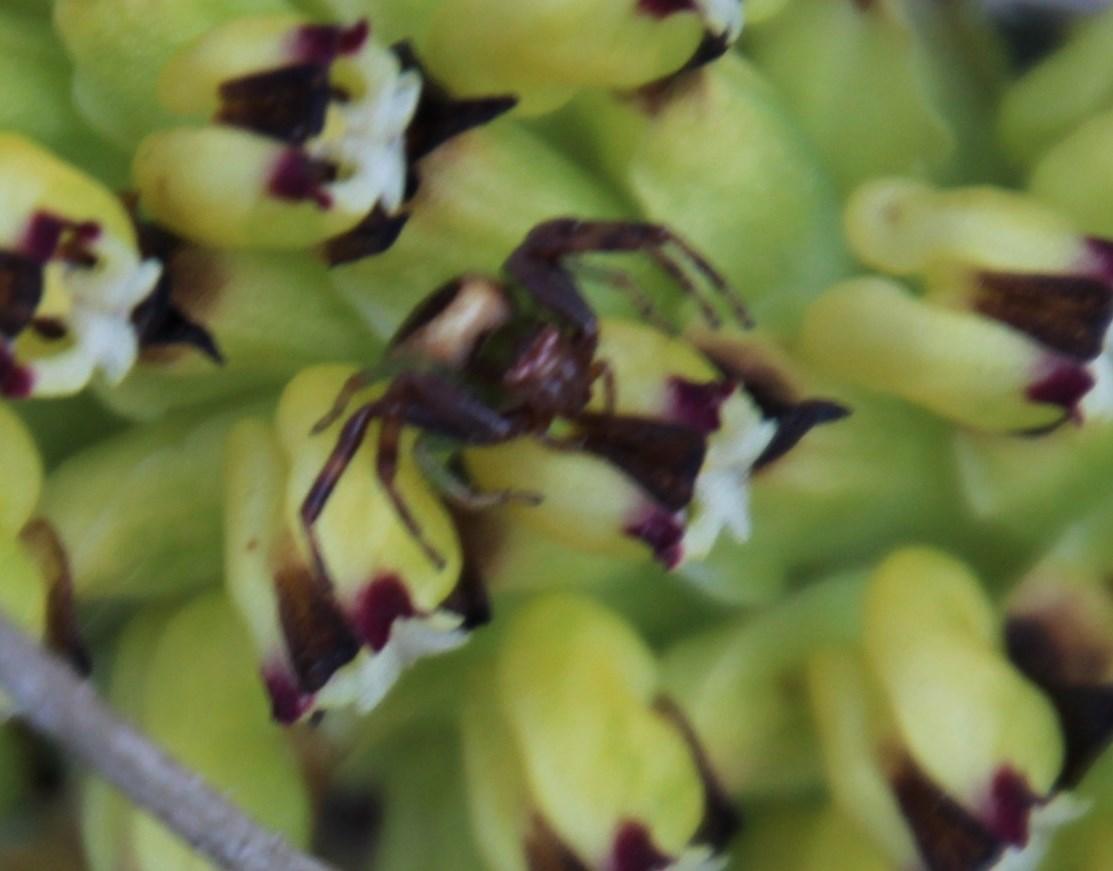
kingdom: Plantae
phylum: Tracheophyta
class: Liliopsida
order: Asparagales
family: Orchidaceae
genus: Corycium
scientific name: Corycium orobanchoides
